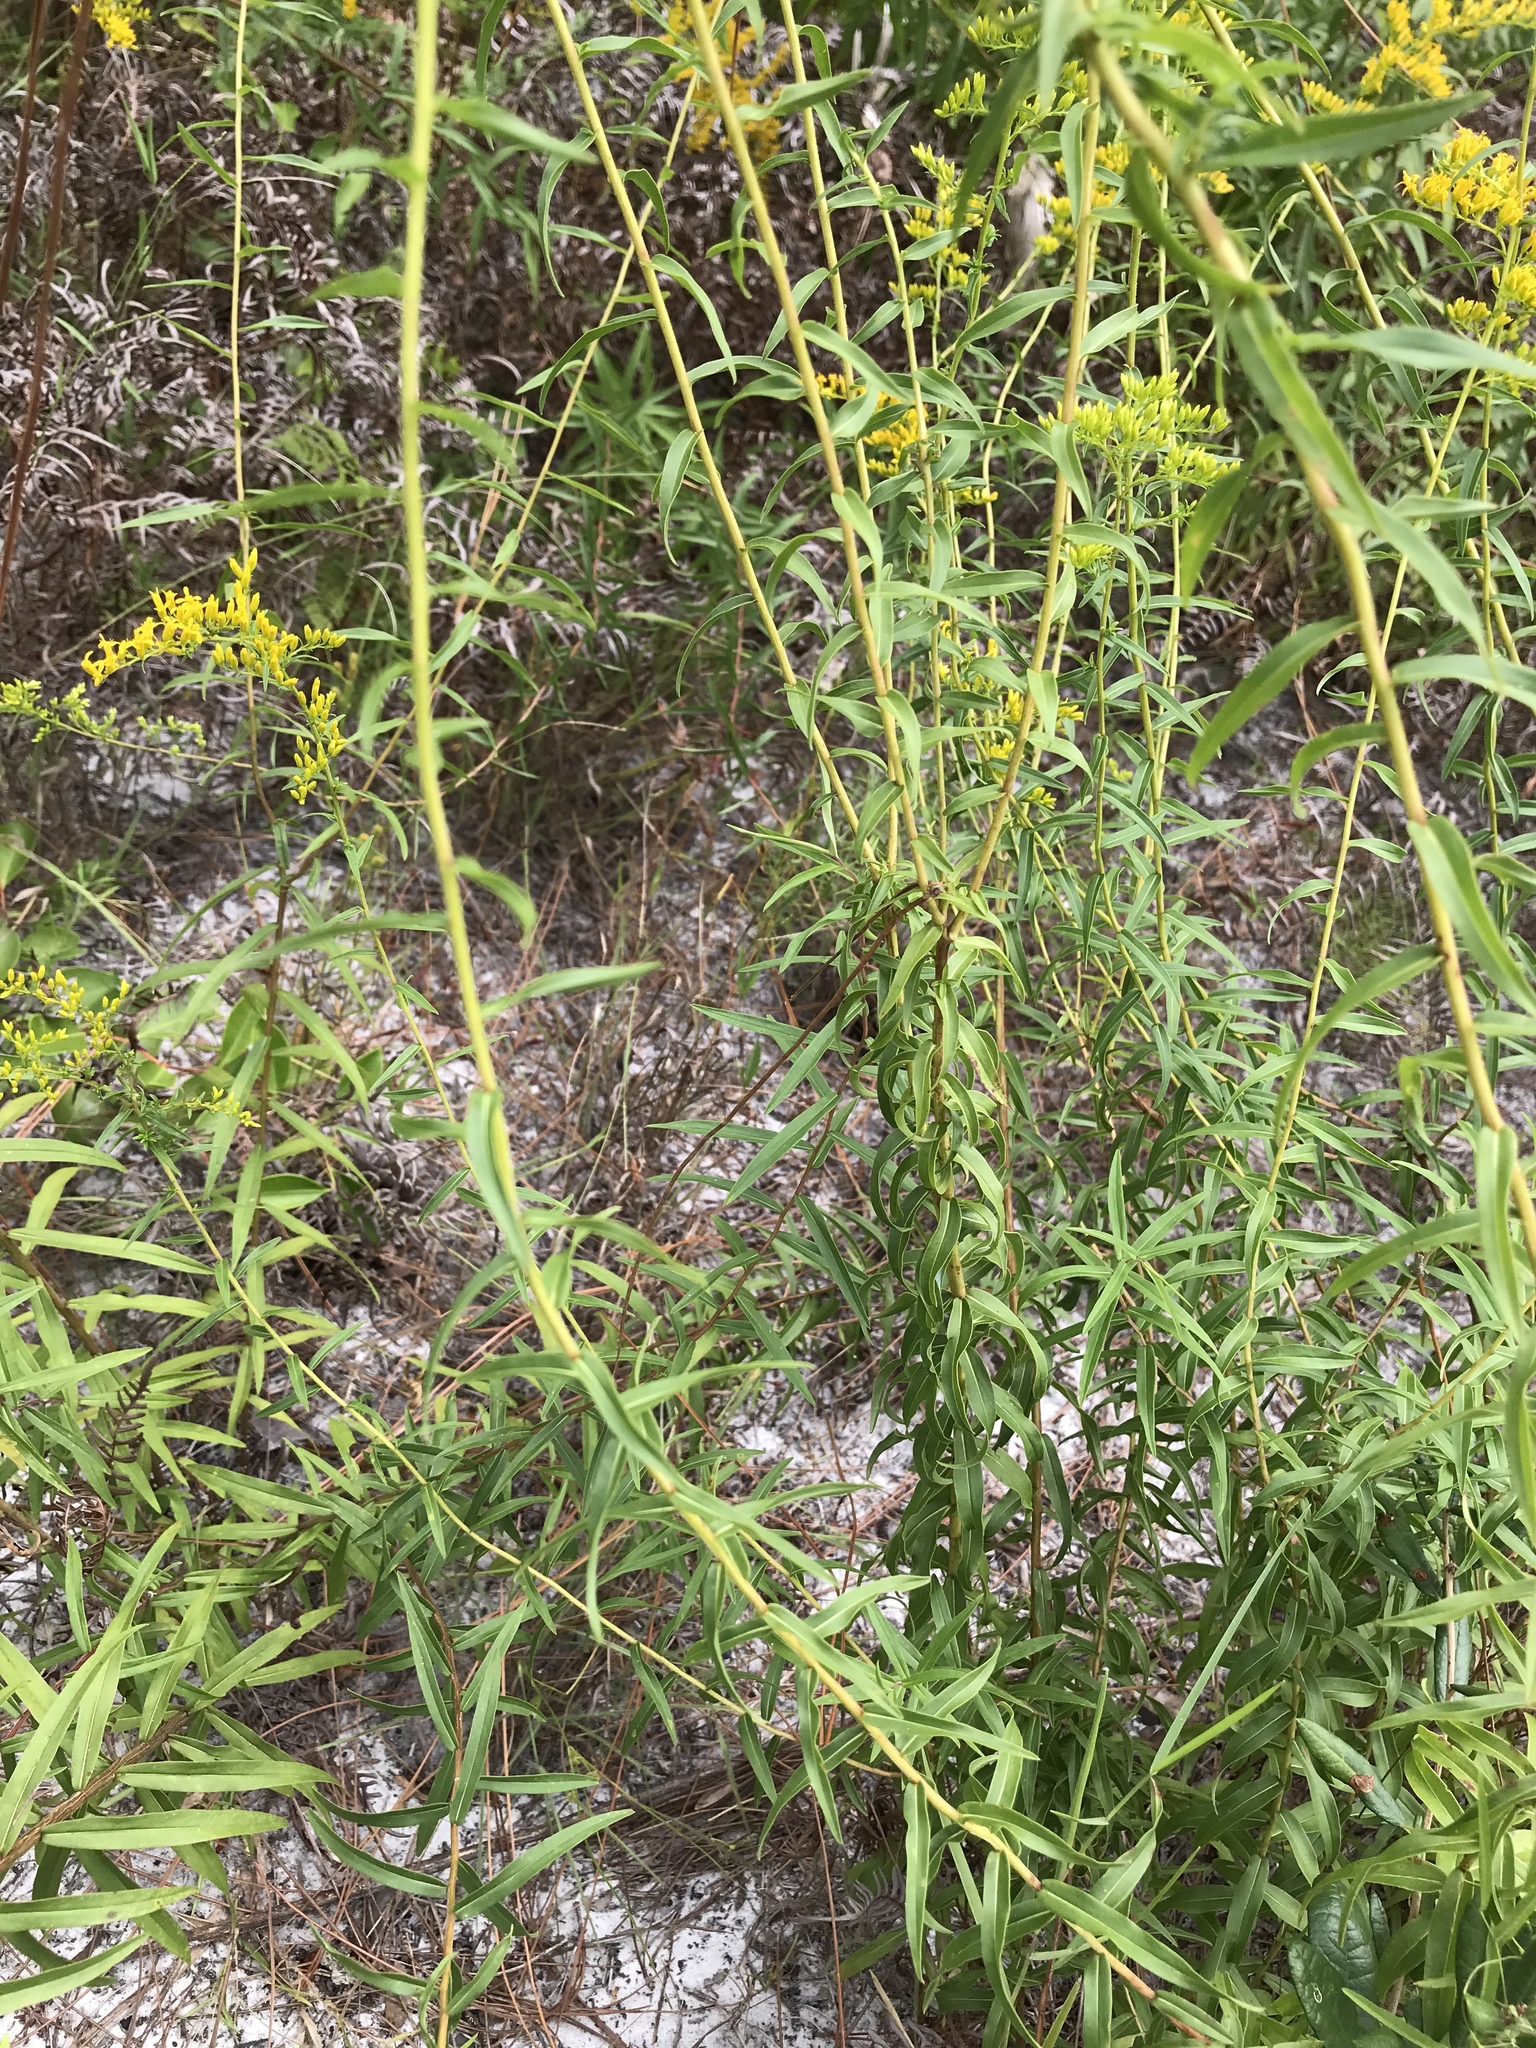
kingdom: Plantae
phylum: Tracheophyta
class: Magnoliopsida
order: Asterales
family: Asteraceae
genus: Solidago
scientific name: Solidago odora
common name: Anise-scented goldenrod
